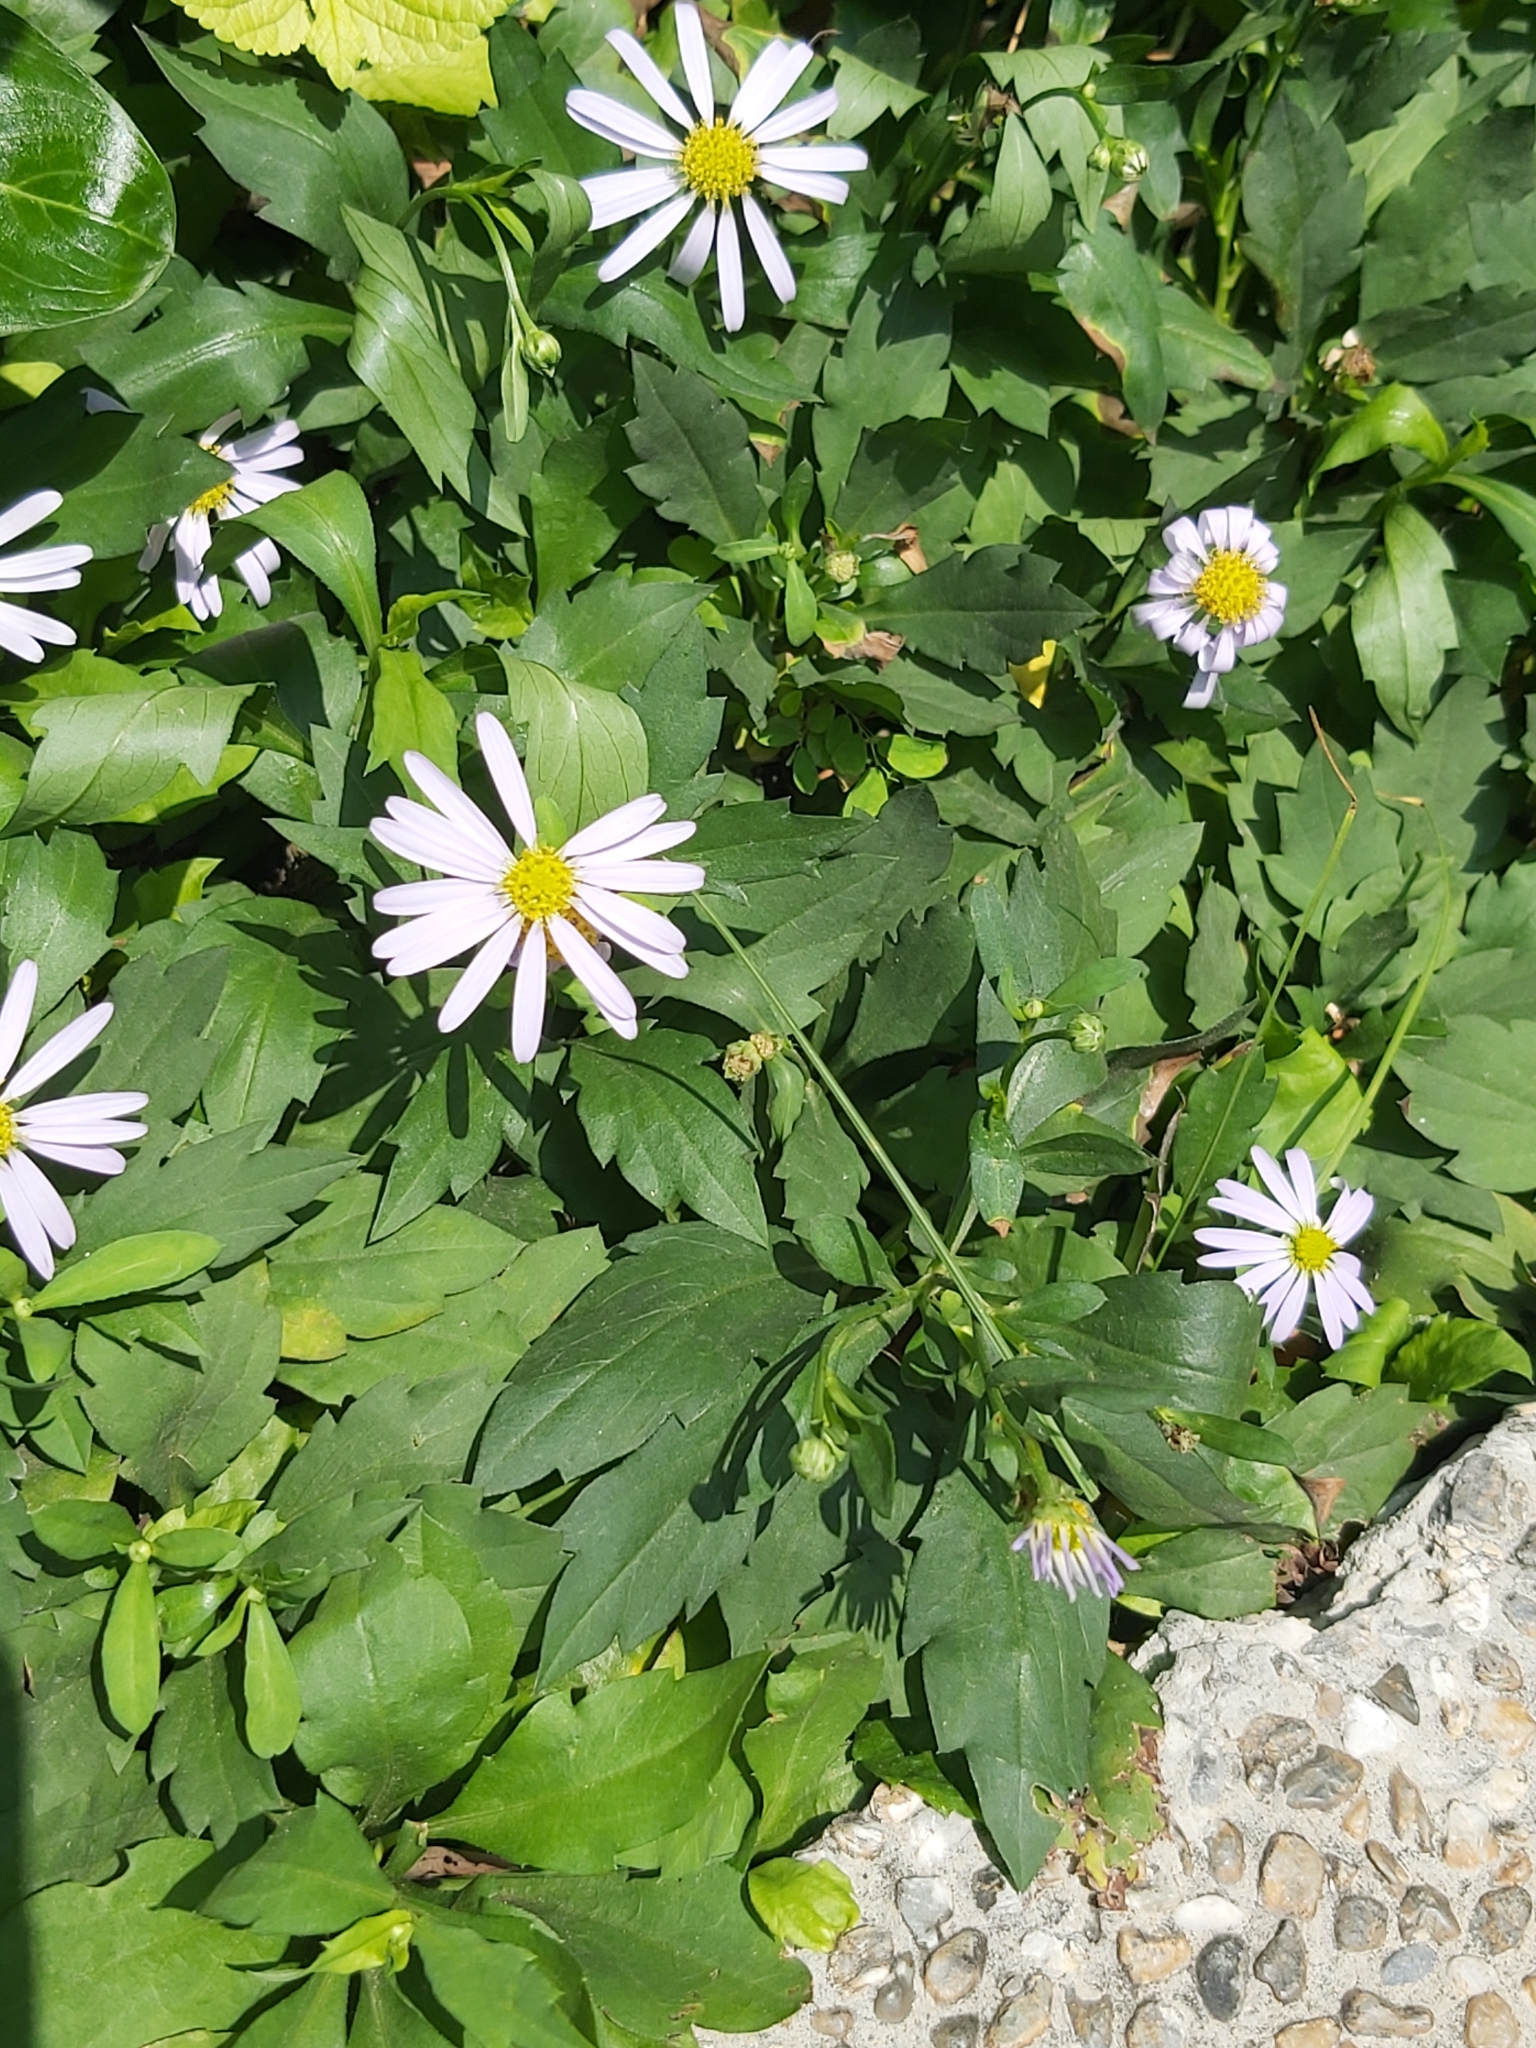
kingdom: Plantae
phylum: Tracheophyta
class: Magnoliopsida
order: Asterales
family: Asteraceae
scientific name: Asteraceae
